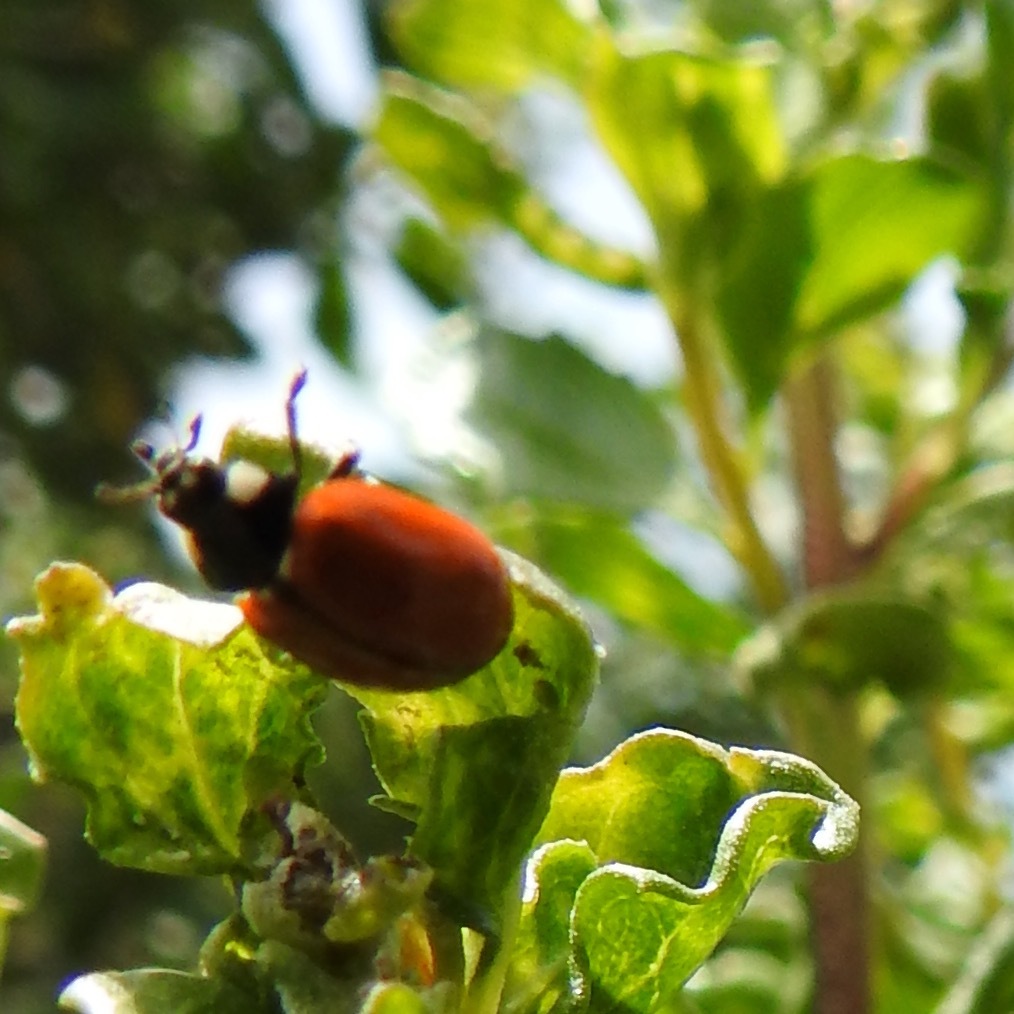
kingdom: Plantae
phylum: Tracheophyta
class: Magnoliopsida
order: Asterales
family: Asteraceae
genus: Baccharis
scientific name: Baccharis pilularis
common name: Coyotebrush
